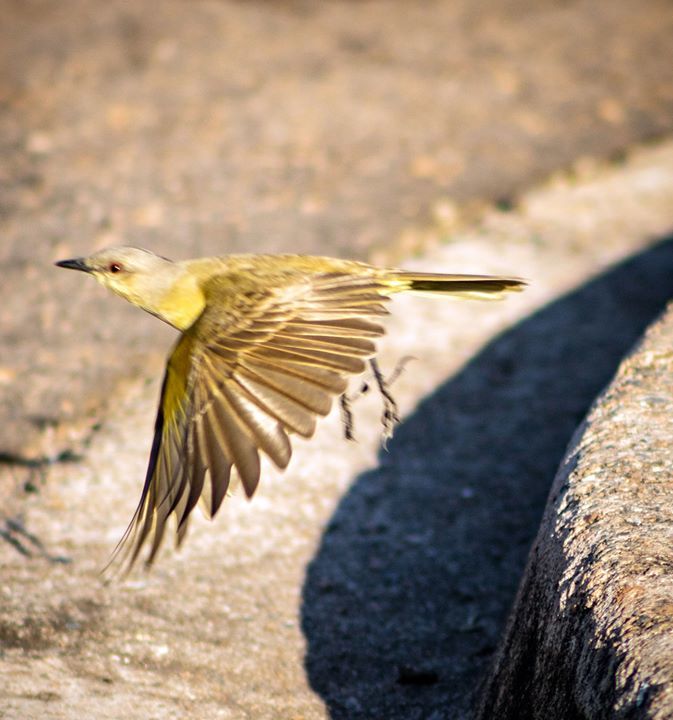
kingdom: Animalia
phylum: Chordata
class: Aves
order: Passeriformes
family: Tyrannidae
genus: Machetornis
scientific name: Machetornis rixosa
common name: Cattle tyrant
